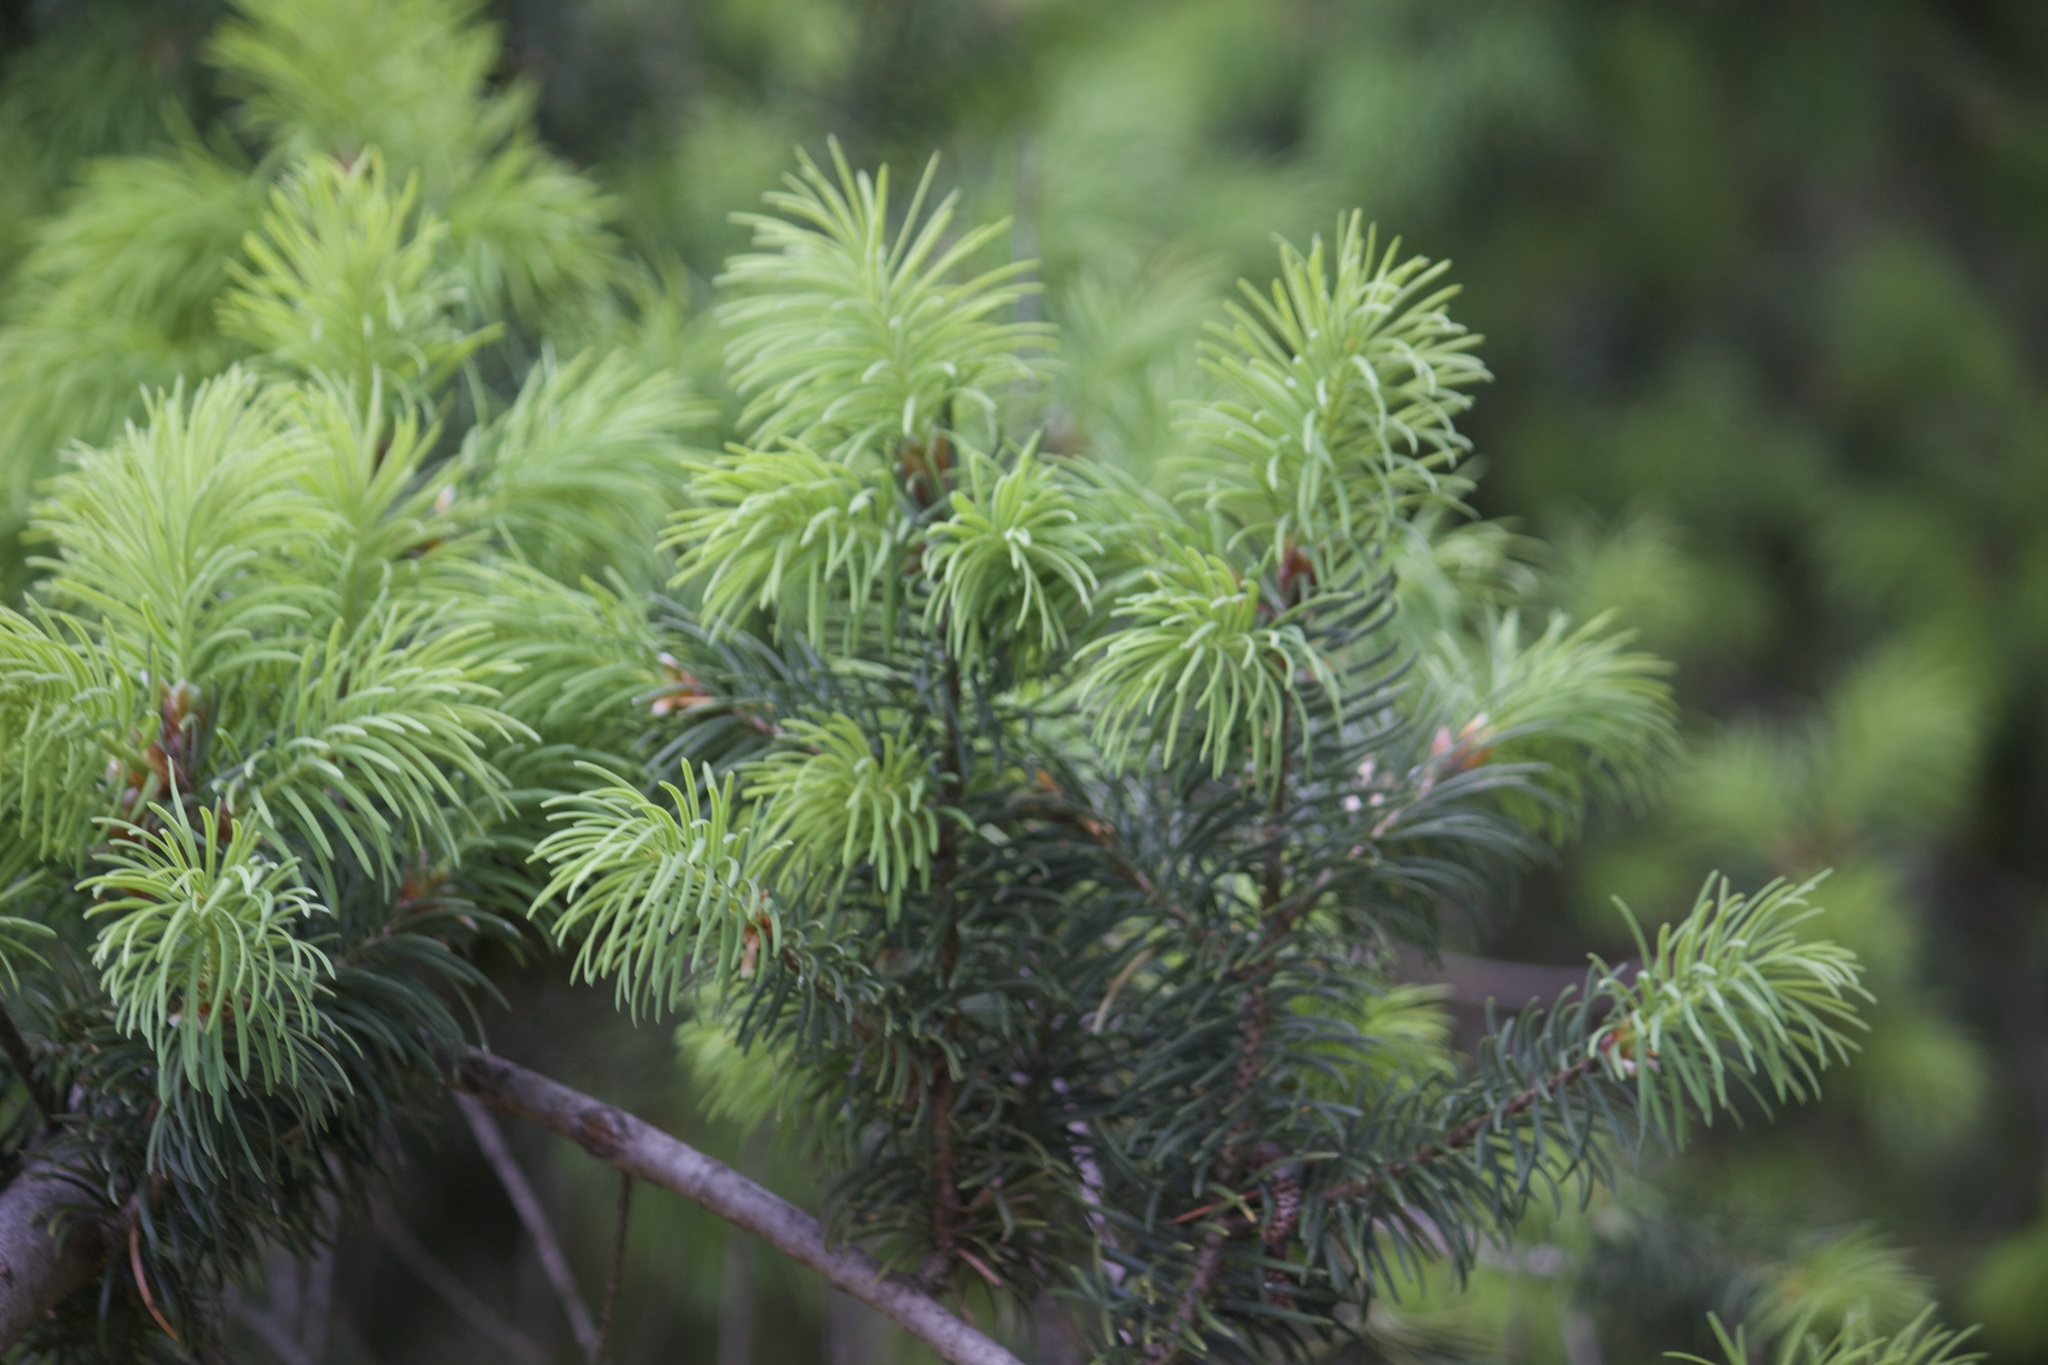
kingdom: Plantae
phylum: Tracheophyta
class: Pinopsida
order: Pinales
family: Pinaceae
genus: Pseudotsuga
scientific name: Pseudotsuga macrocarpa
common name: Big-cone douglas-fir
